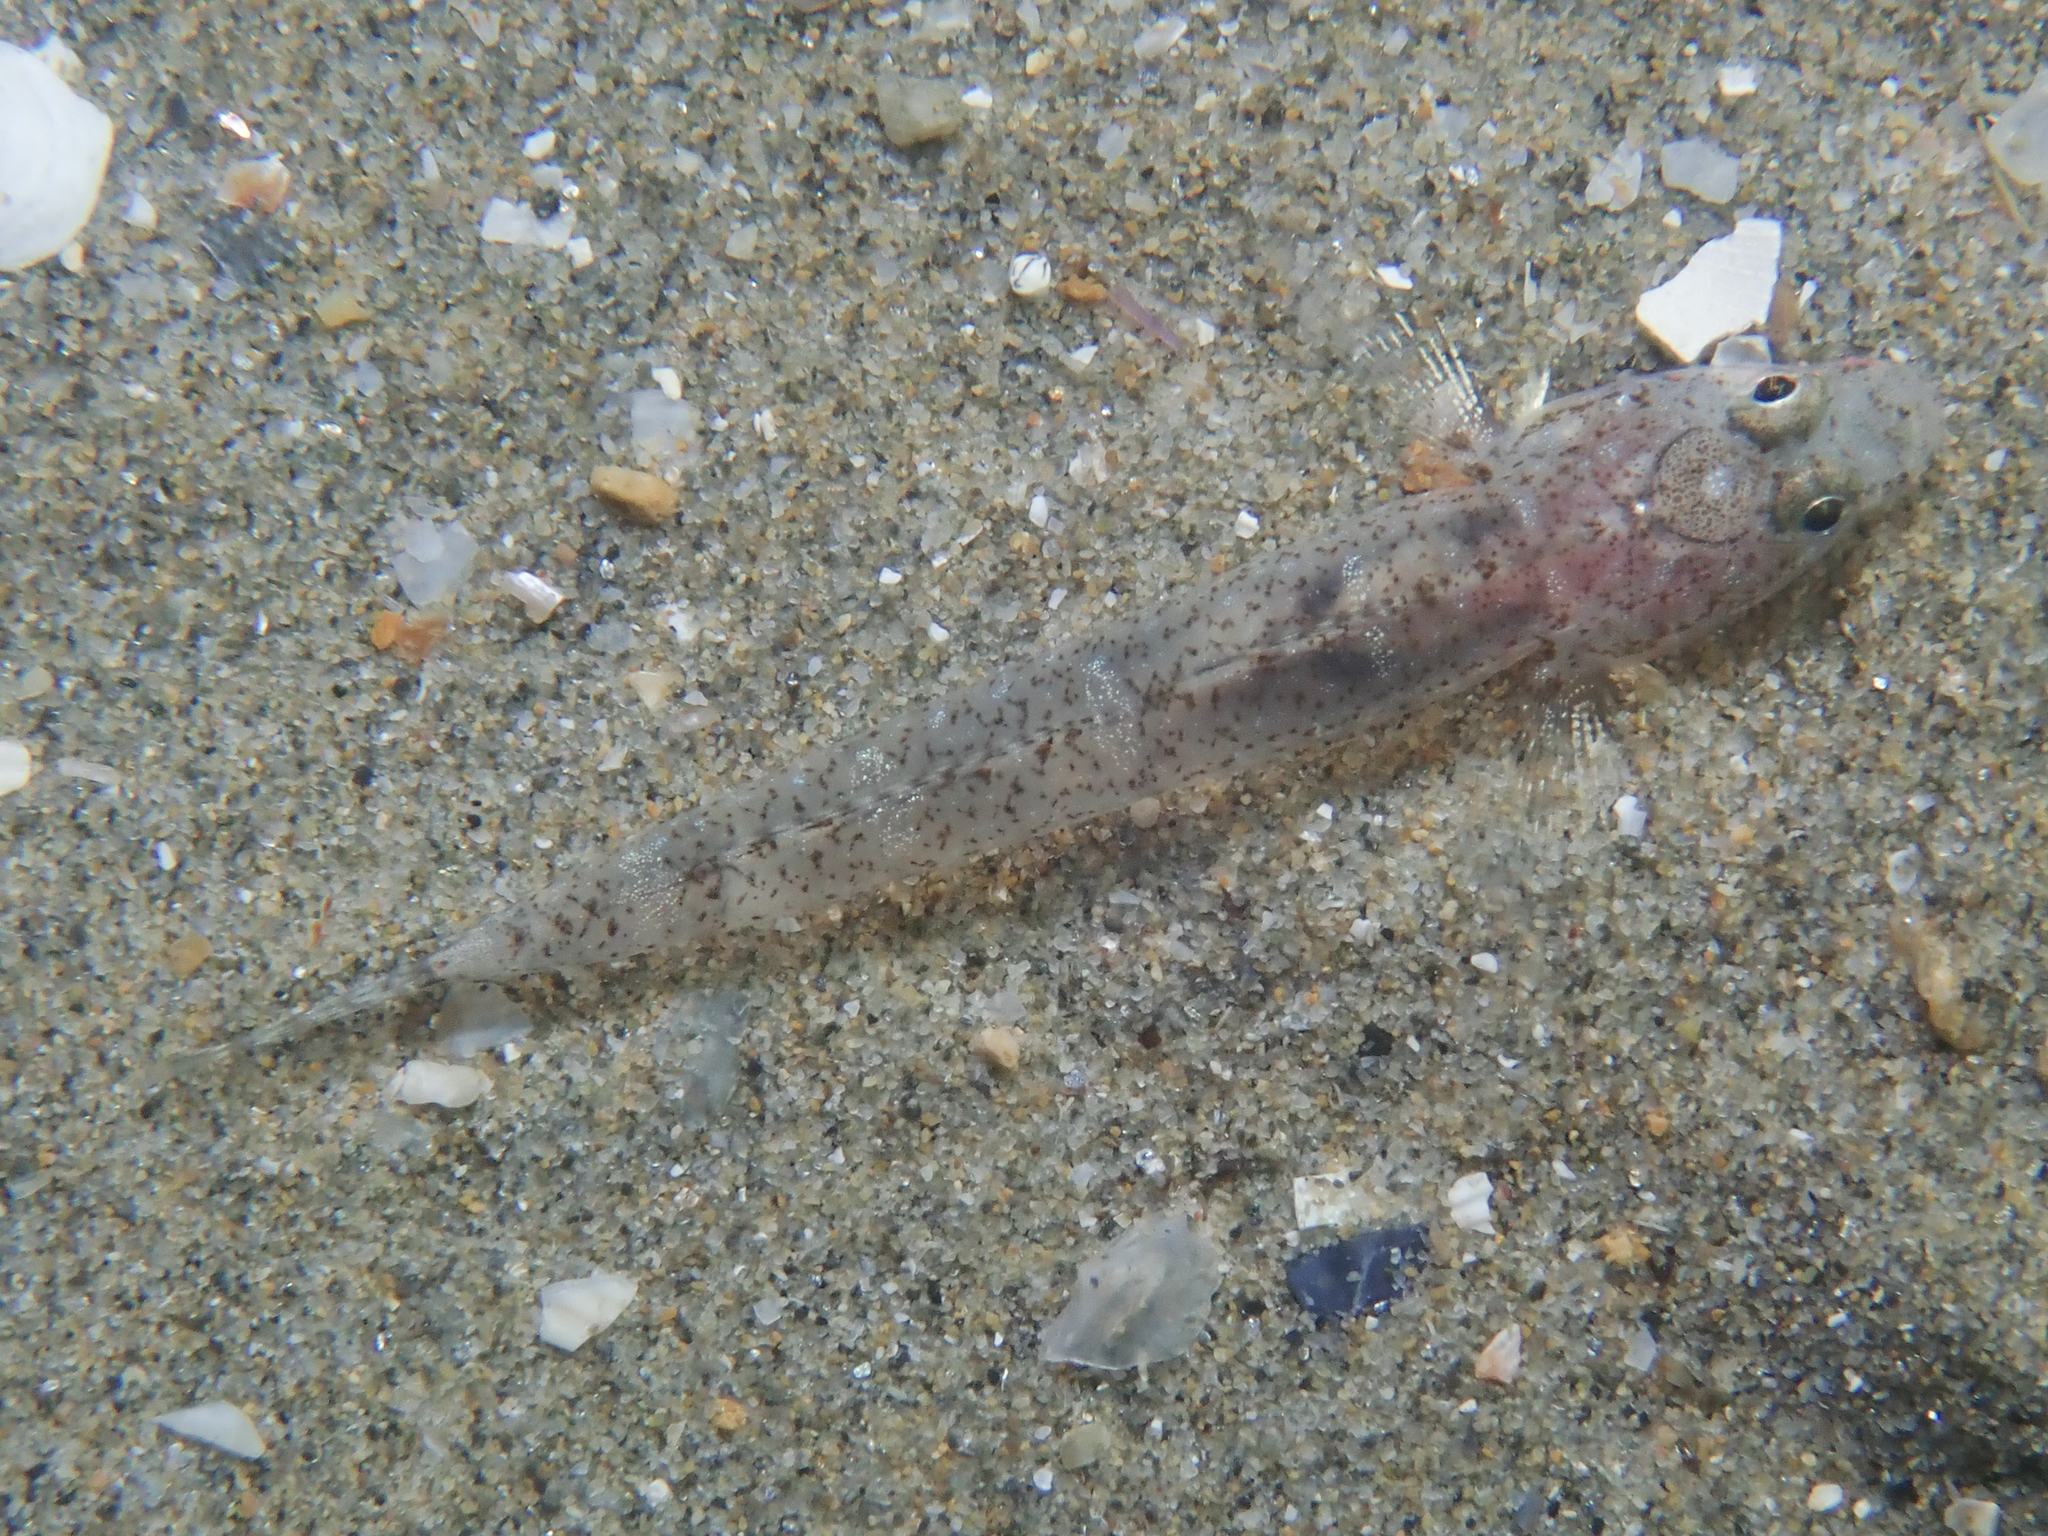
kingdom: Animalia
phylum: Chordata
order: Perciformes
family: Gobiidae
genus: Pomatoschistus
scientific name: Pomatoschistus marmoratus
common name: Marbled goby
